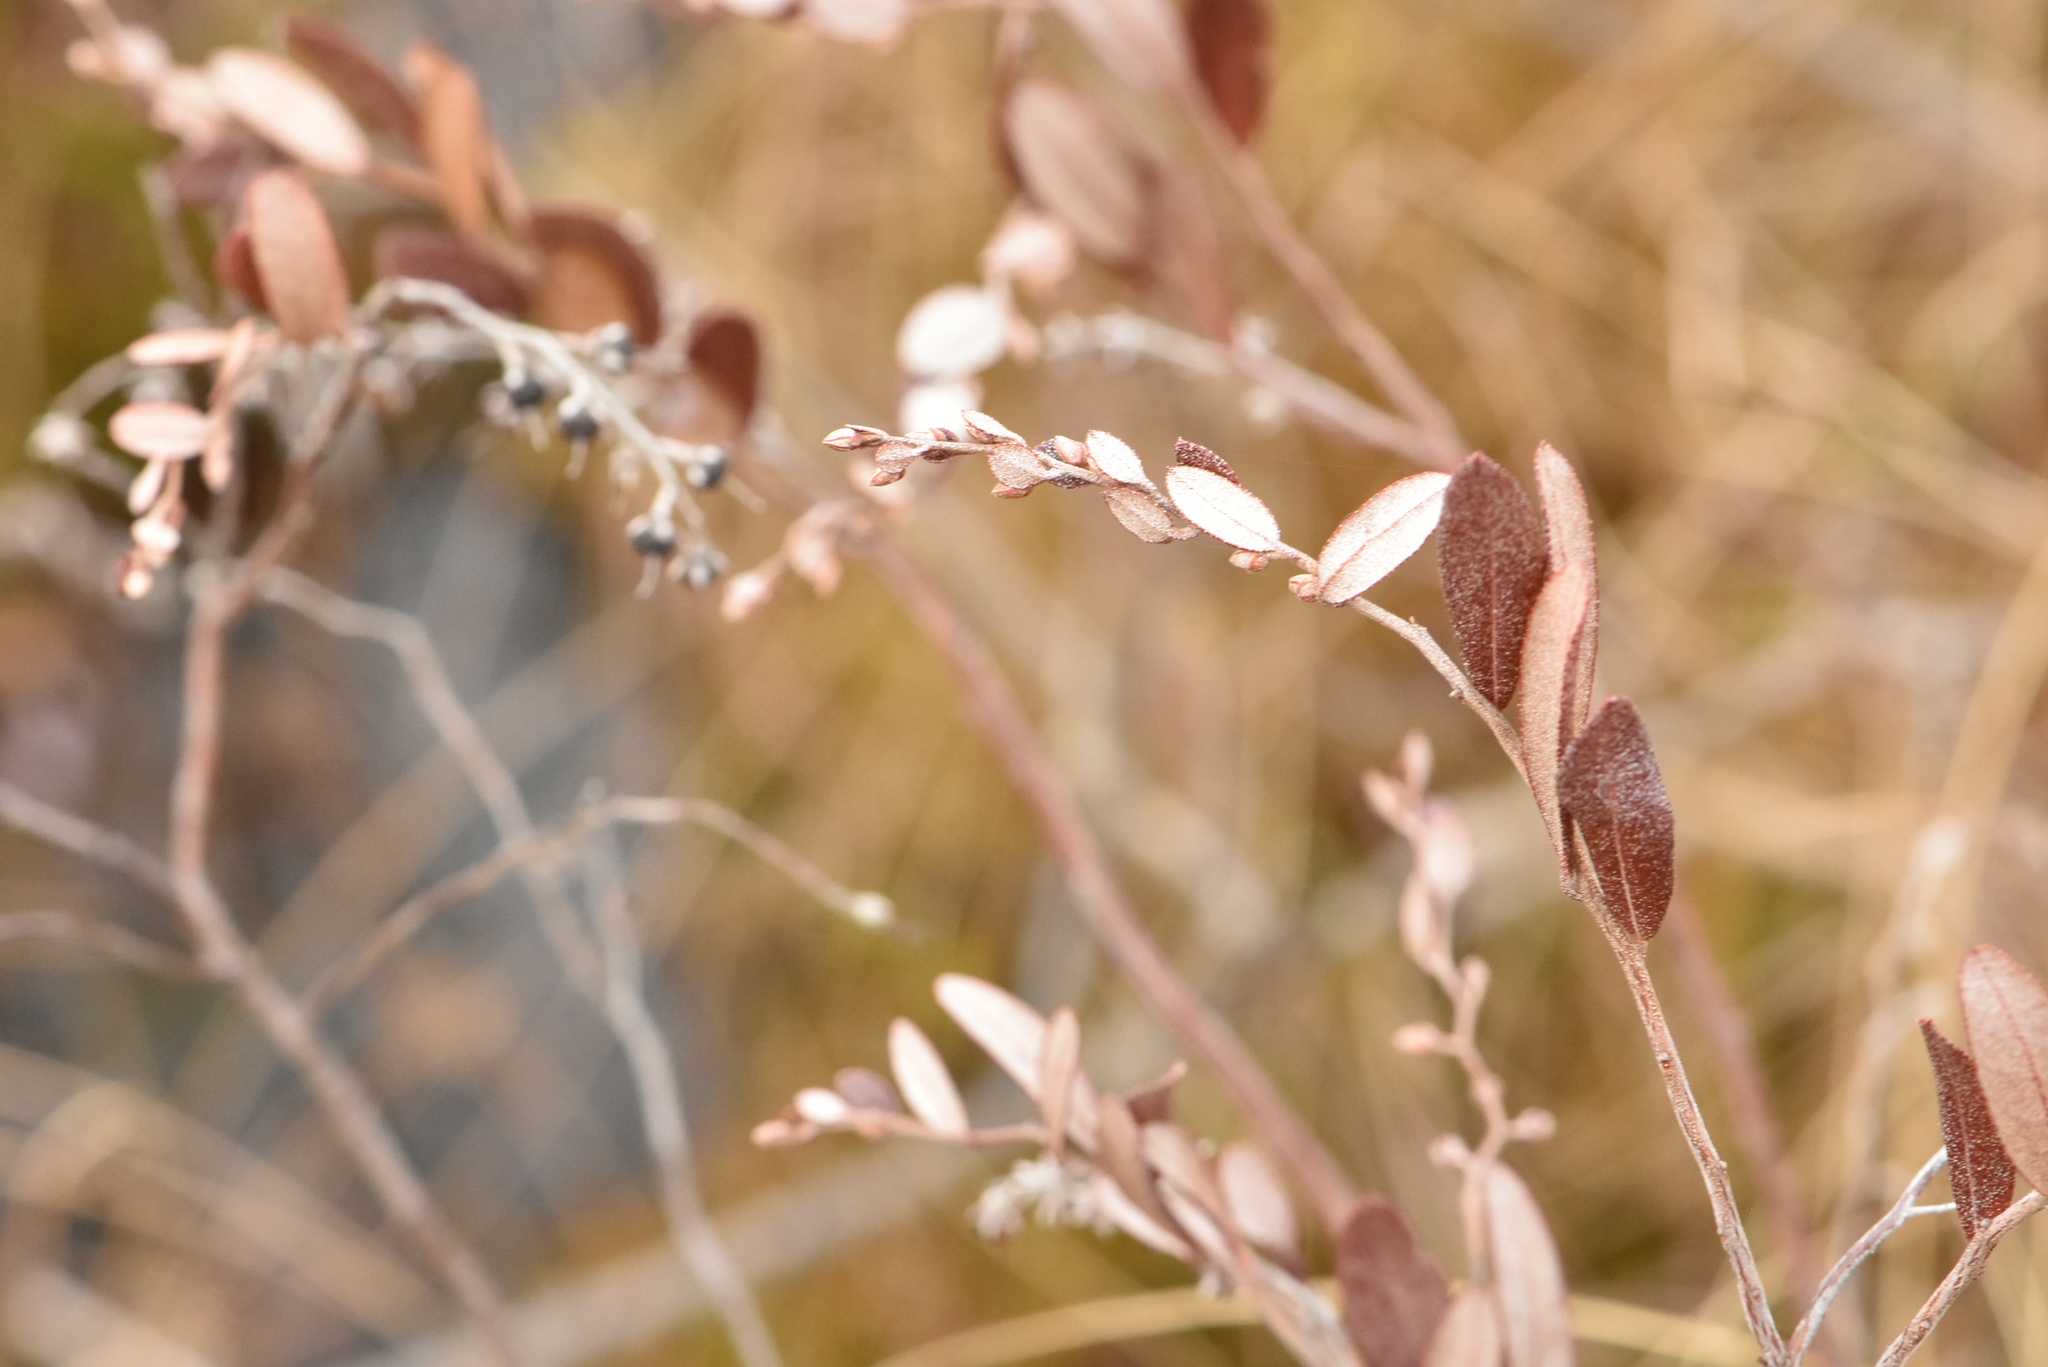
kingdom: Plantae
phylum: Tracheophyta
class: Magnoliopsida
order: Ericales
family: Ericaceae
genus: Chamaedaphne
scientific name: Chamaedaphne calyculata
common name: Leatherleaf
